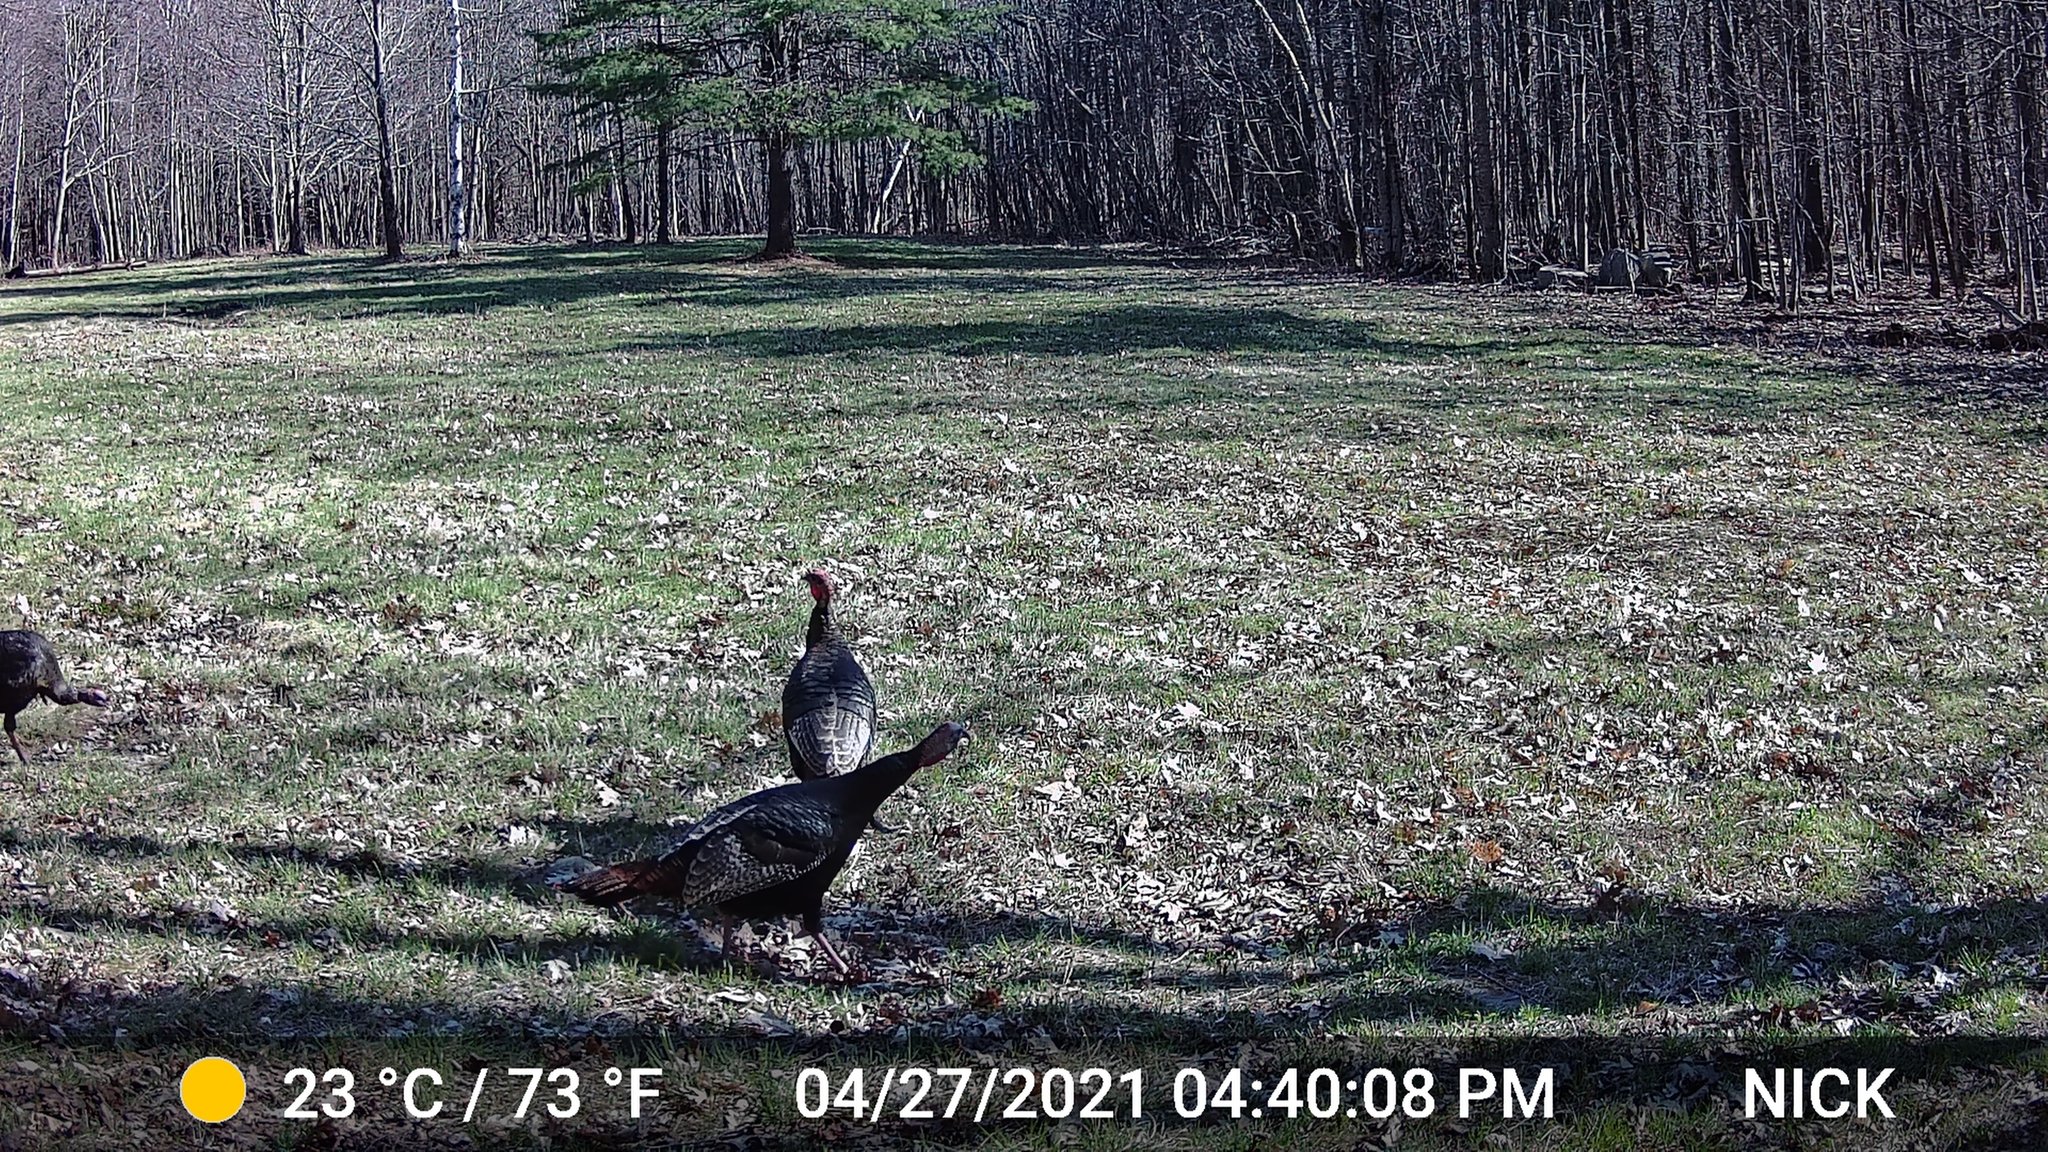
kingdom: Animalia
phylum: Chordata
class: Aves
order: Galliformes
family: Phasianidae
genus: Meleagris
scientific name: Meleagris gallopavo
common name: Wild turkey
